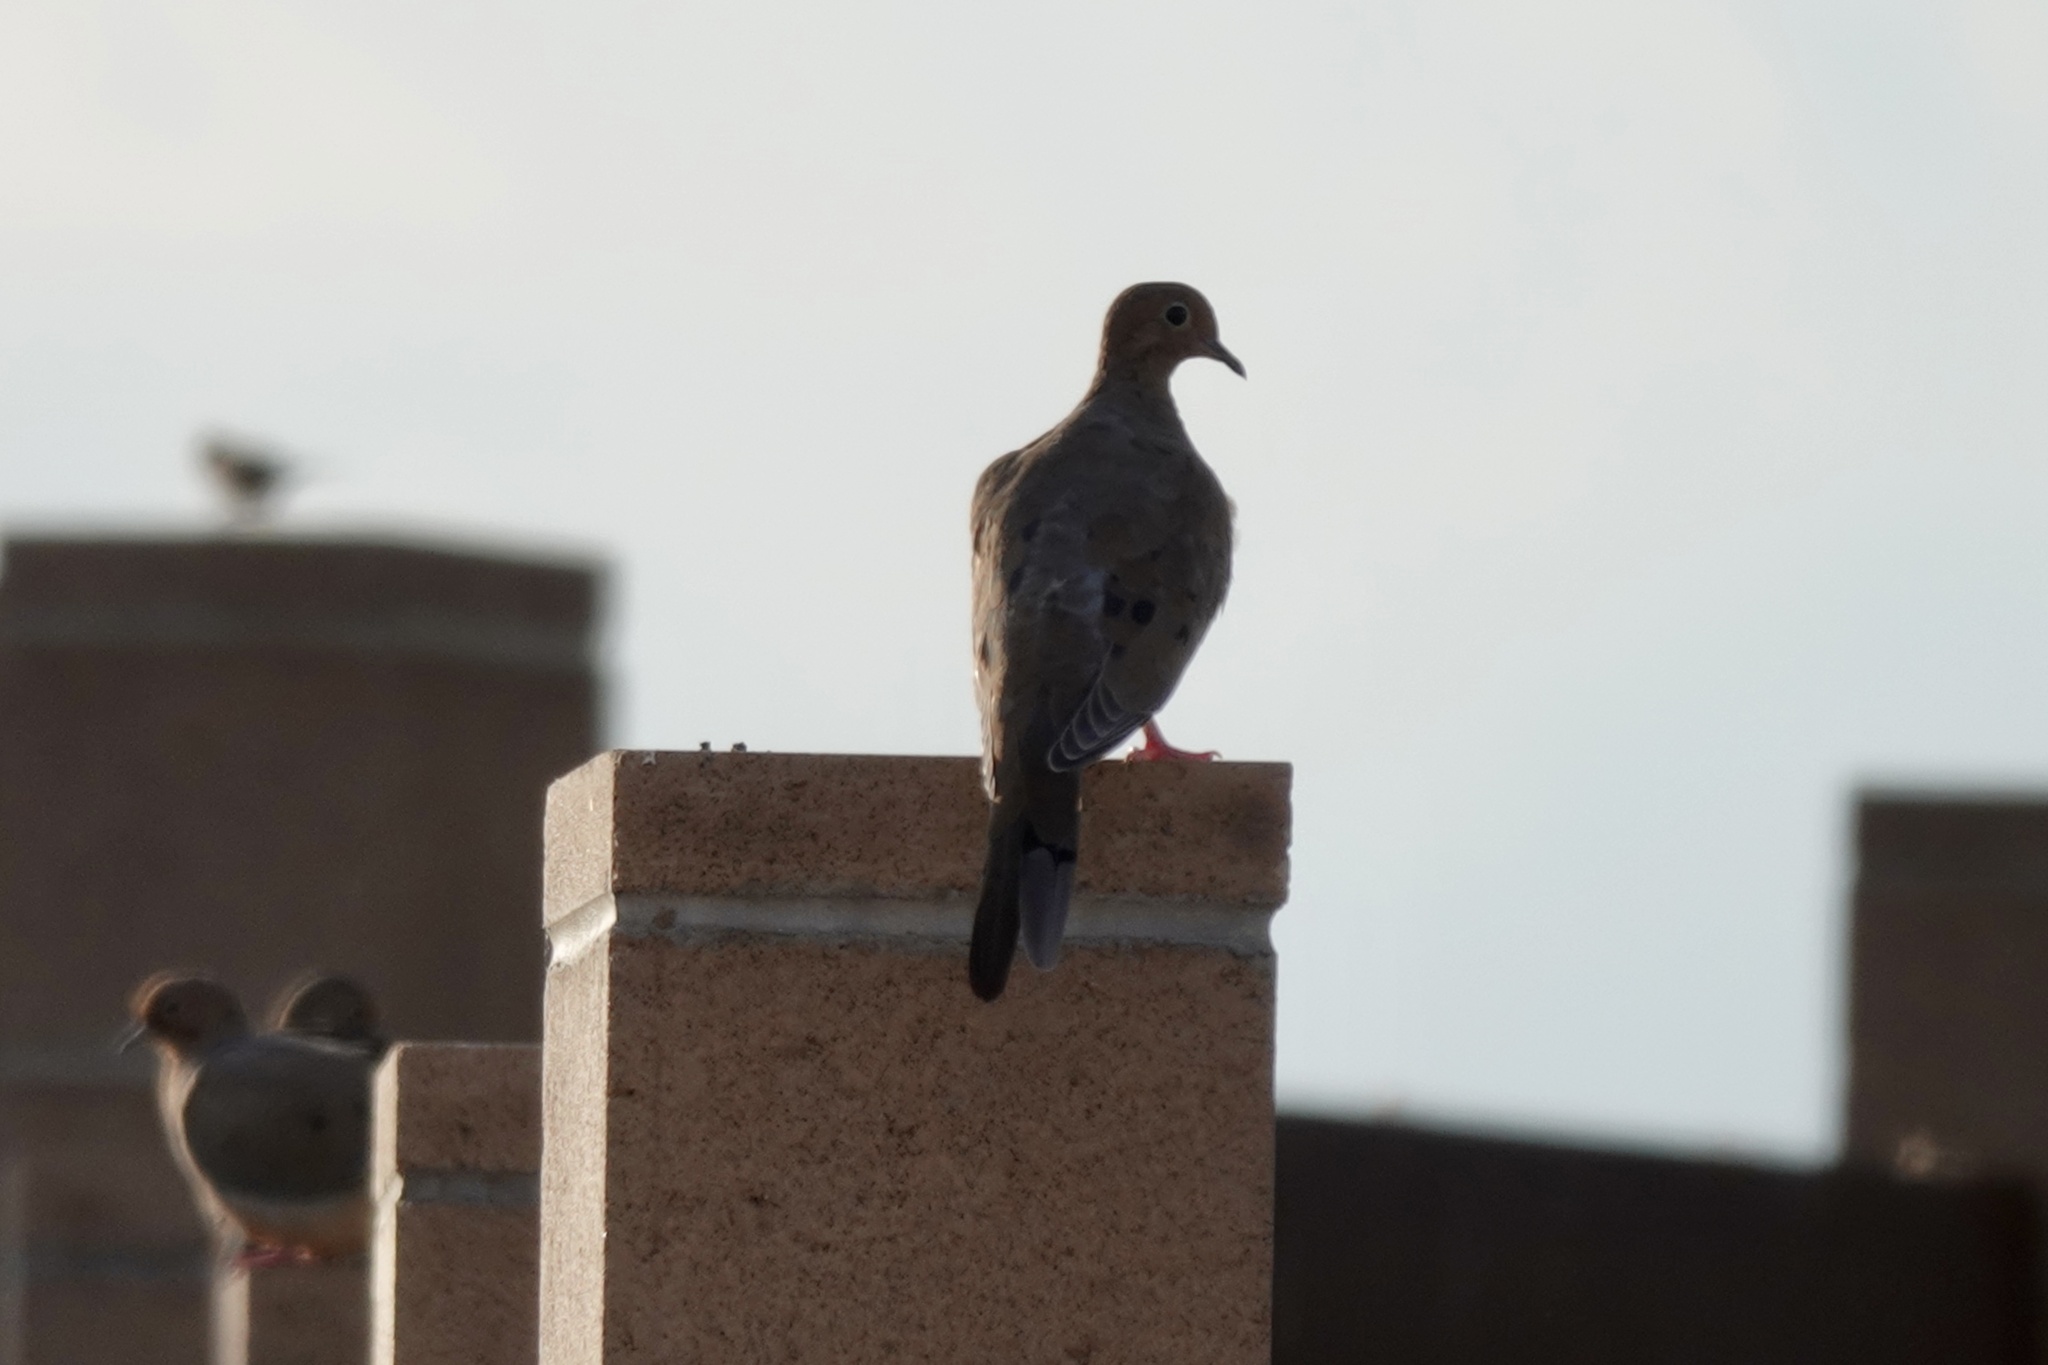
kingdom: Animalia
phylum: Chordata
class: Aves
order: Columbiformes
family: Columbidae
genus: Zenaida
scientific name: Zenaida macroura
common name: Mourning dove
